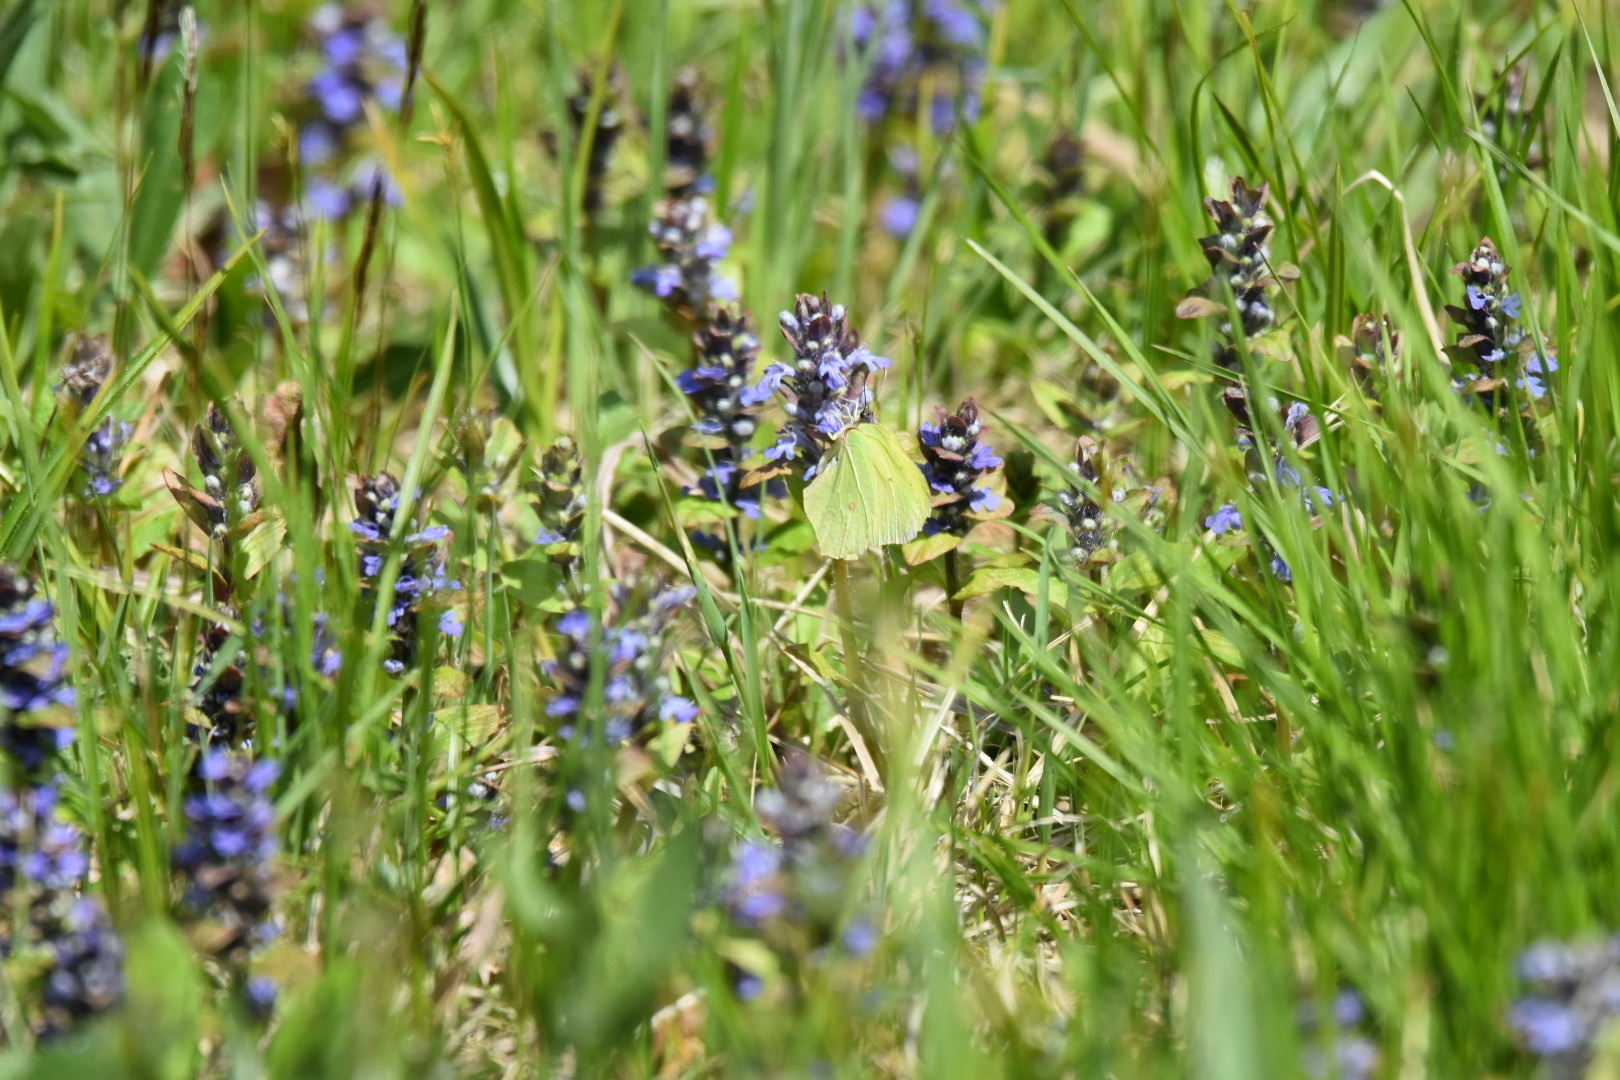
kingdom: Animalia
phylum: Arthropoda
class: Insecta
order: Lepidoptera
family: Pieridae
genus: Gonepteryx
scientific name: Gonepteryx rhamni
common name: Brimstone
